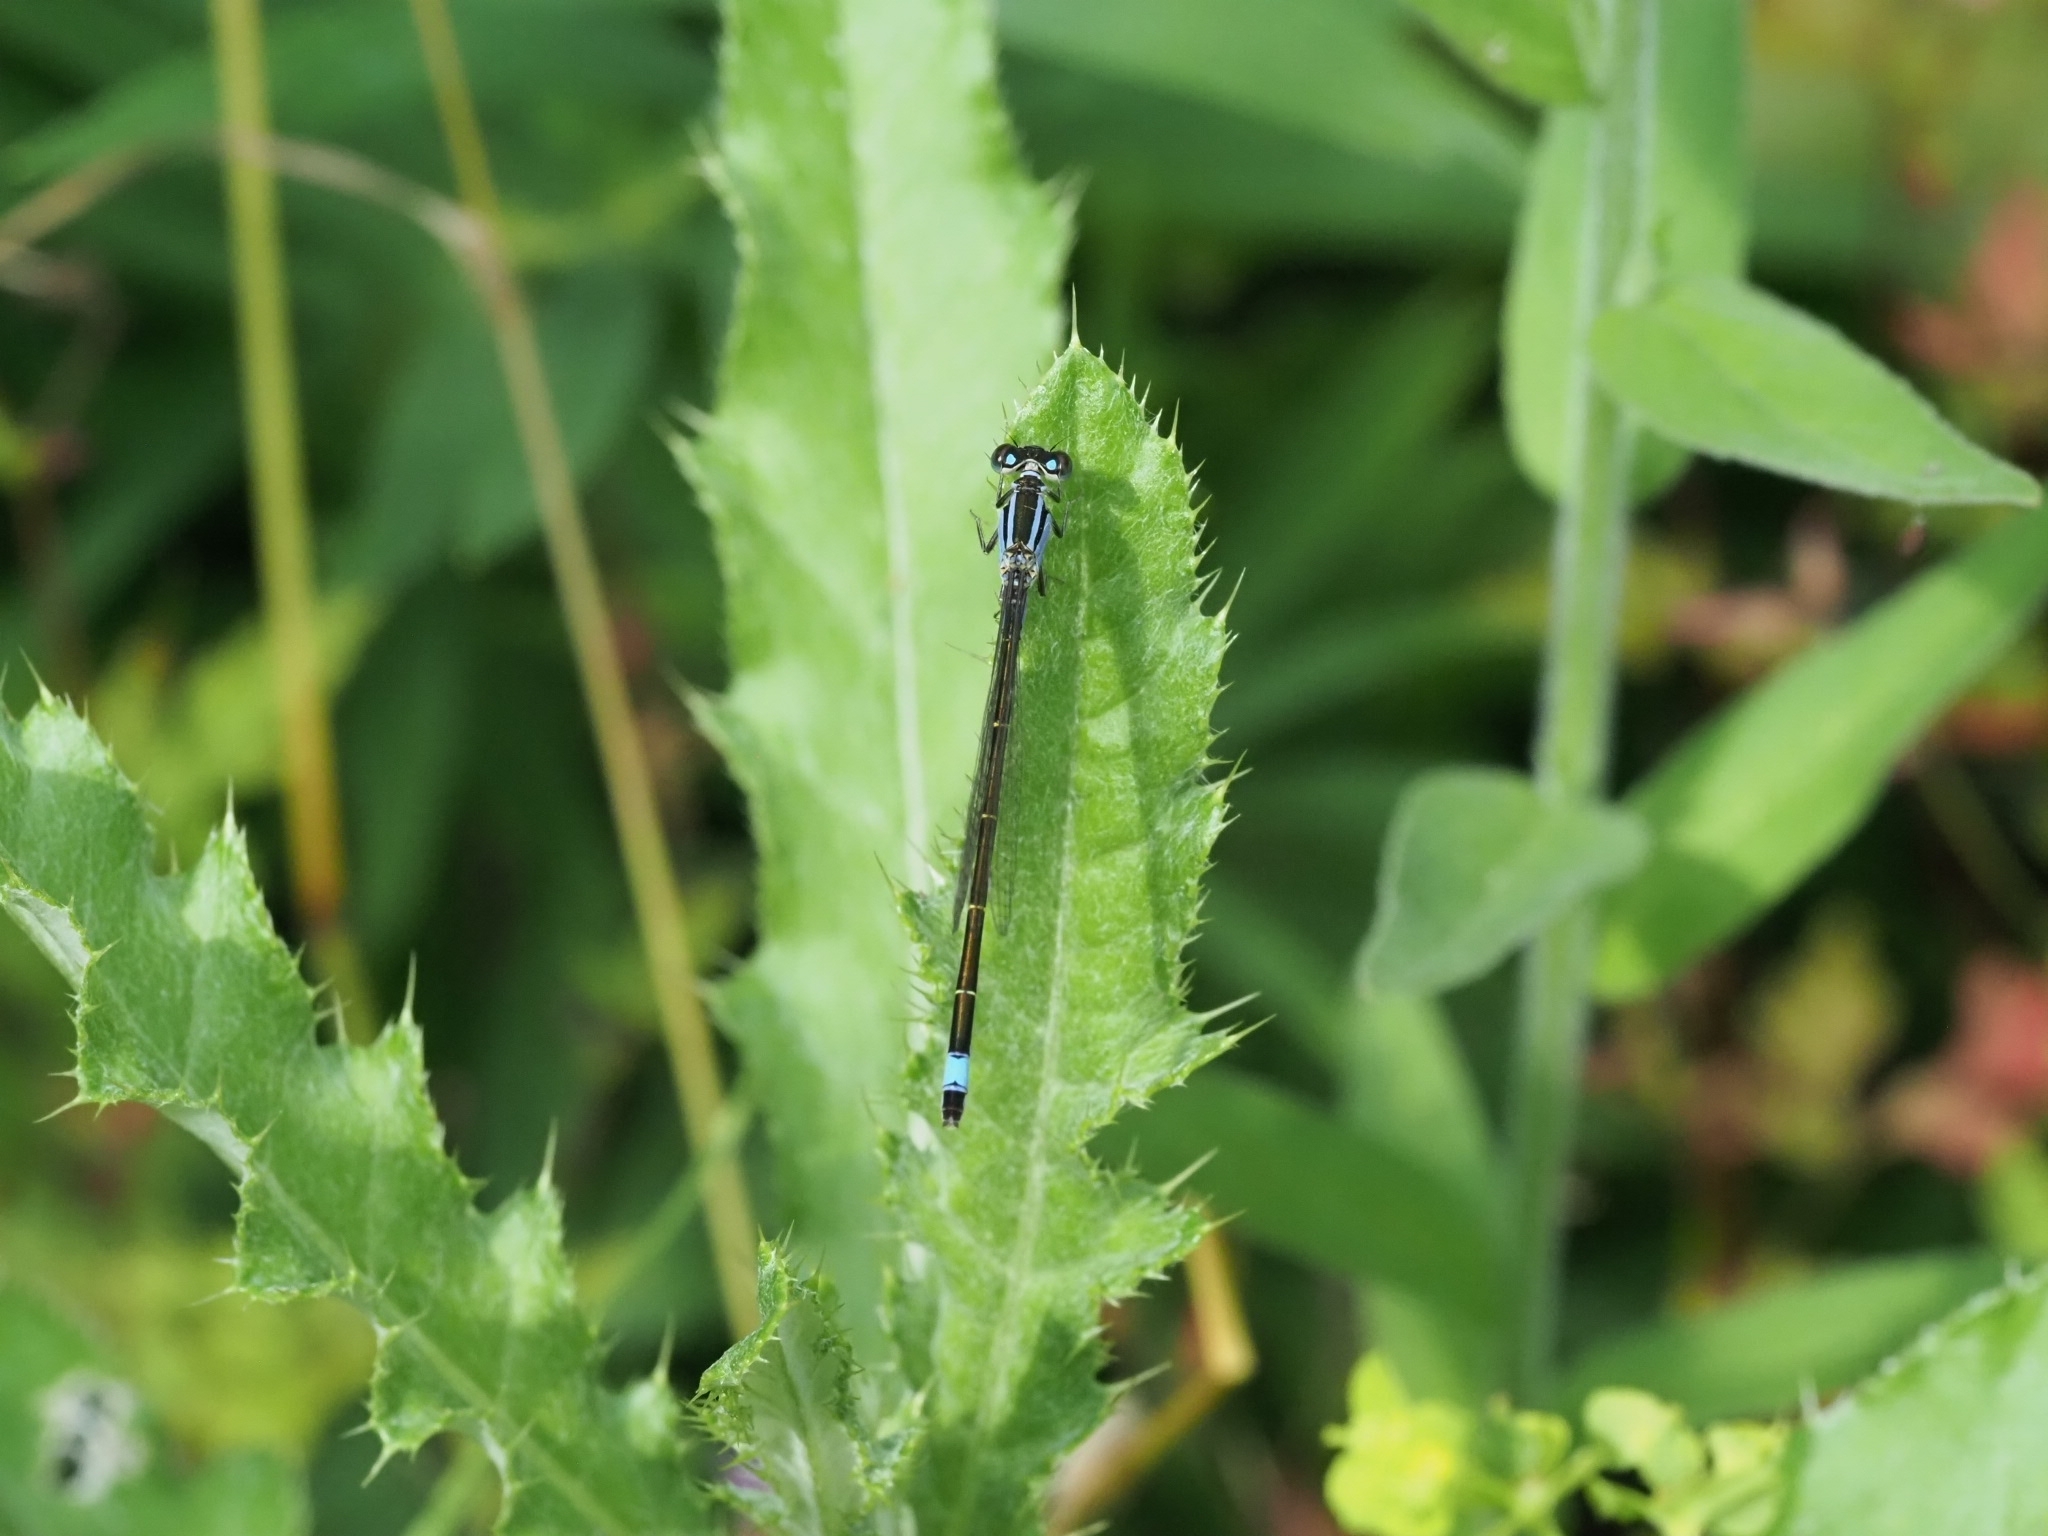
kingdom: Animalia
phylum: Arthropoda
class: Insecta
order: Odonata
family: Coenagrionidae
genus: Ischnura
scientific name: Ischnura elegans
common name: Blue-tailed damselfly
